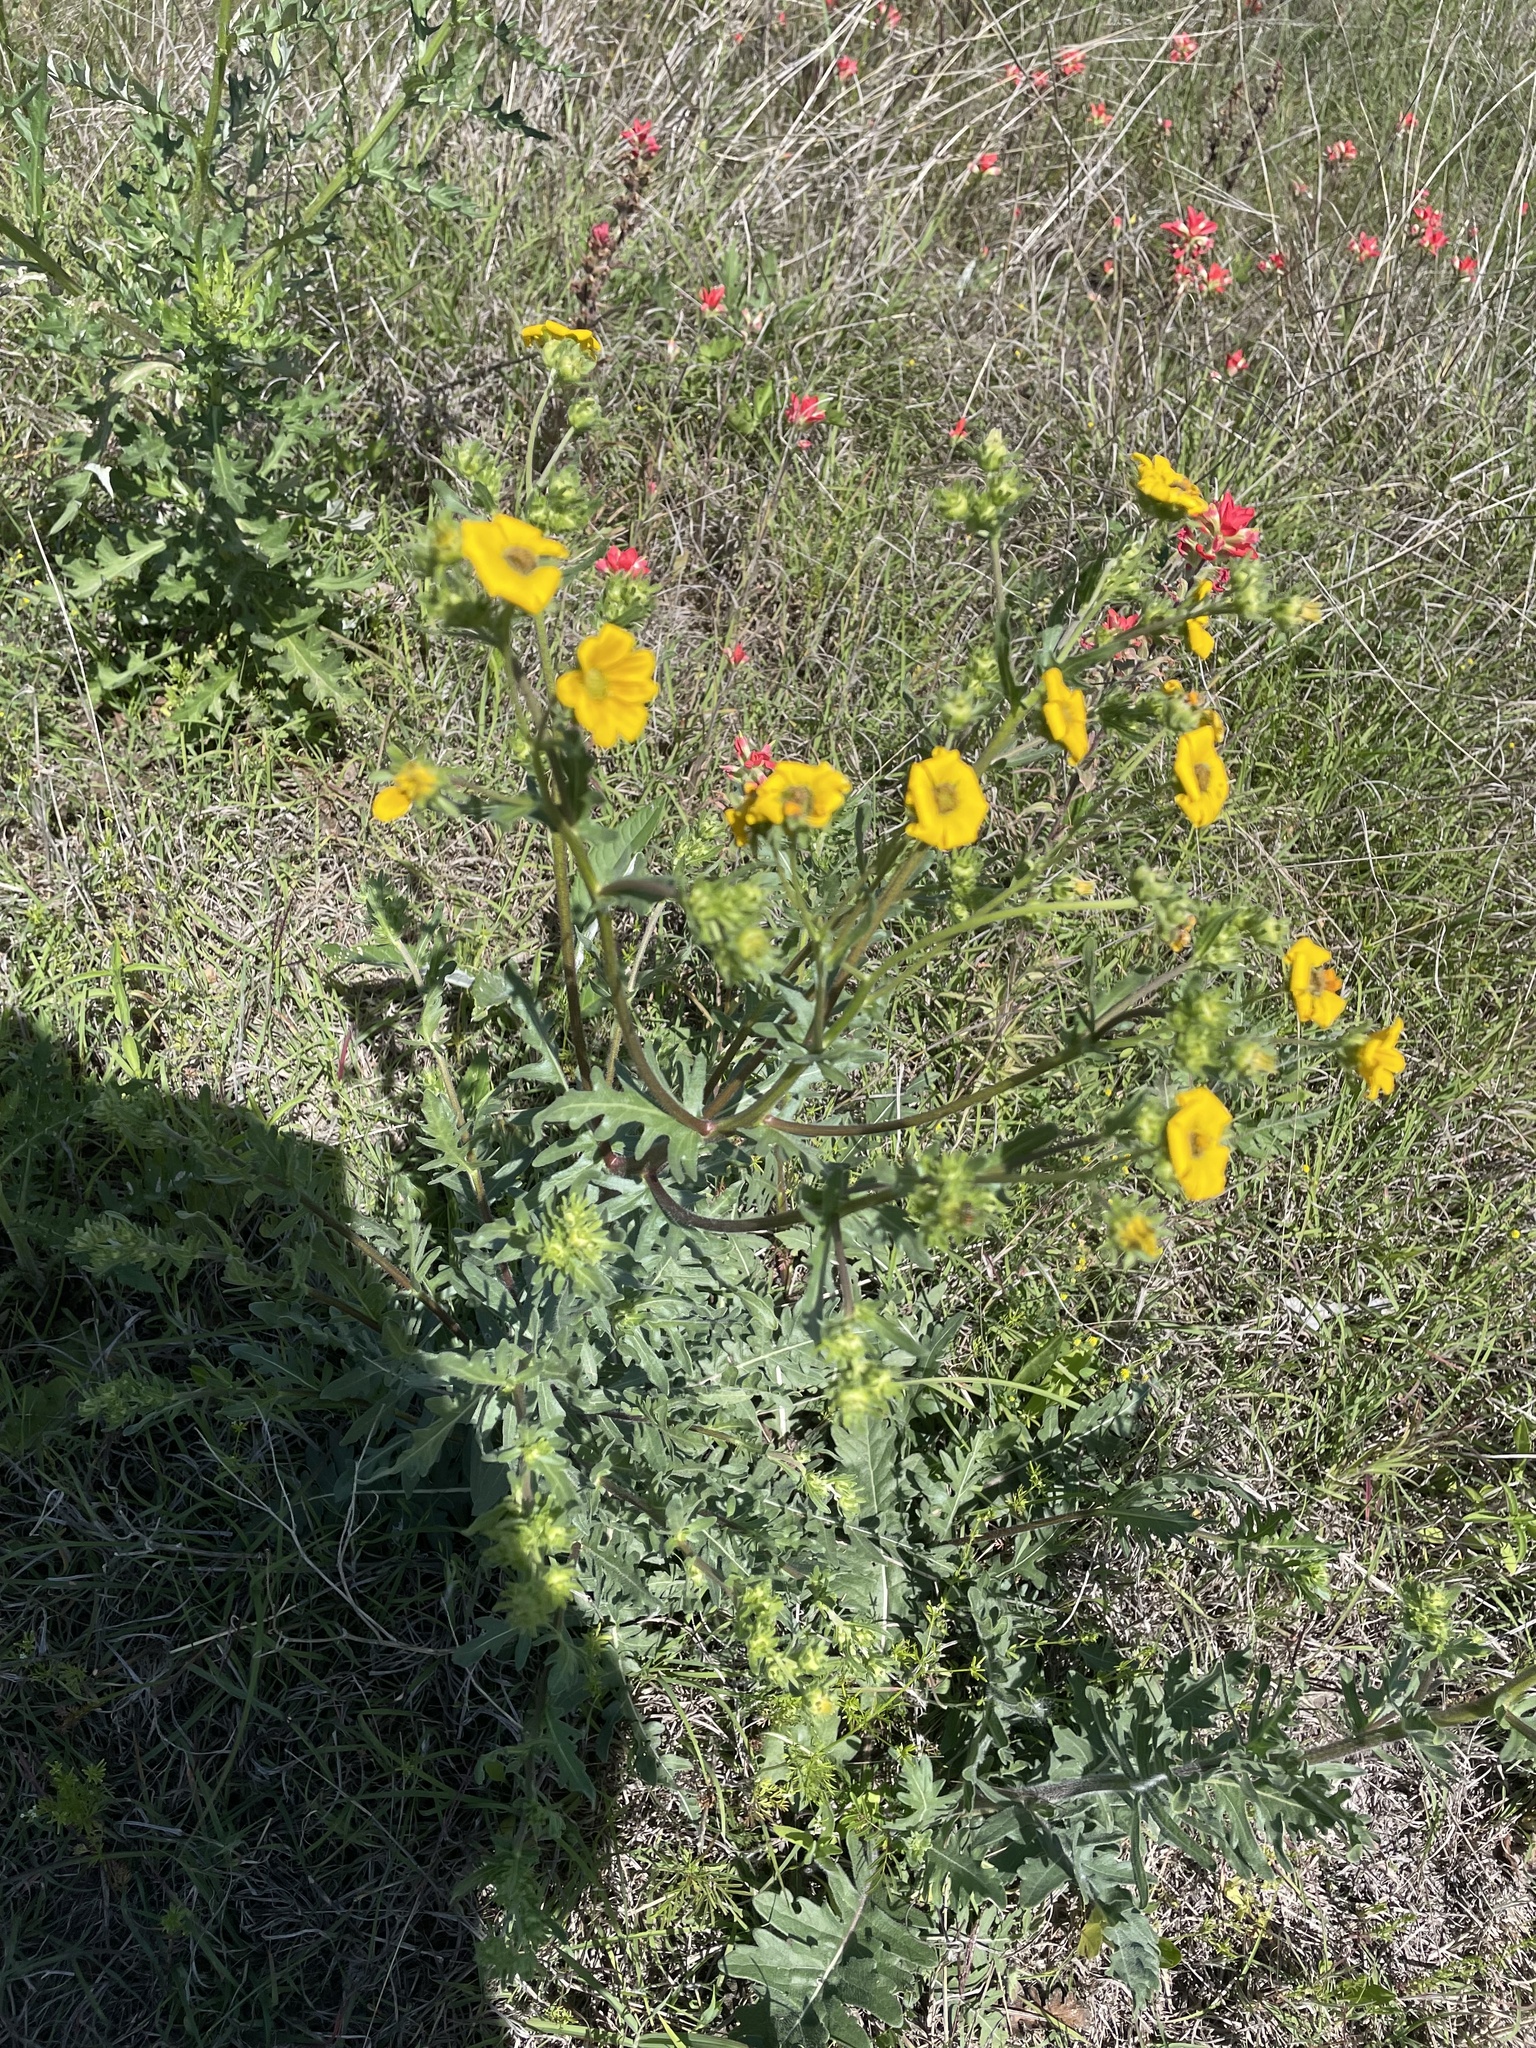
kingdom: Plantae
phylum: Tracheophyta
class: Magnoliopsida
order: Asterales
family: Asteraceae
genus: Engelmannia
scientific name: Engelmannia peristenia
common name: Engelmann's daisy
